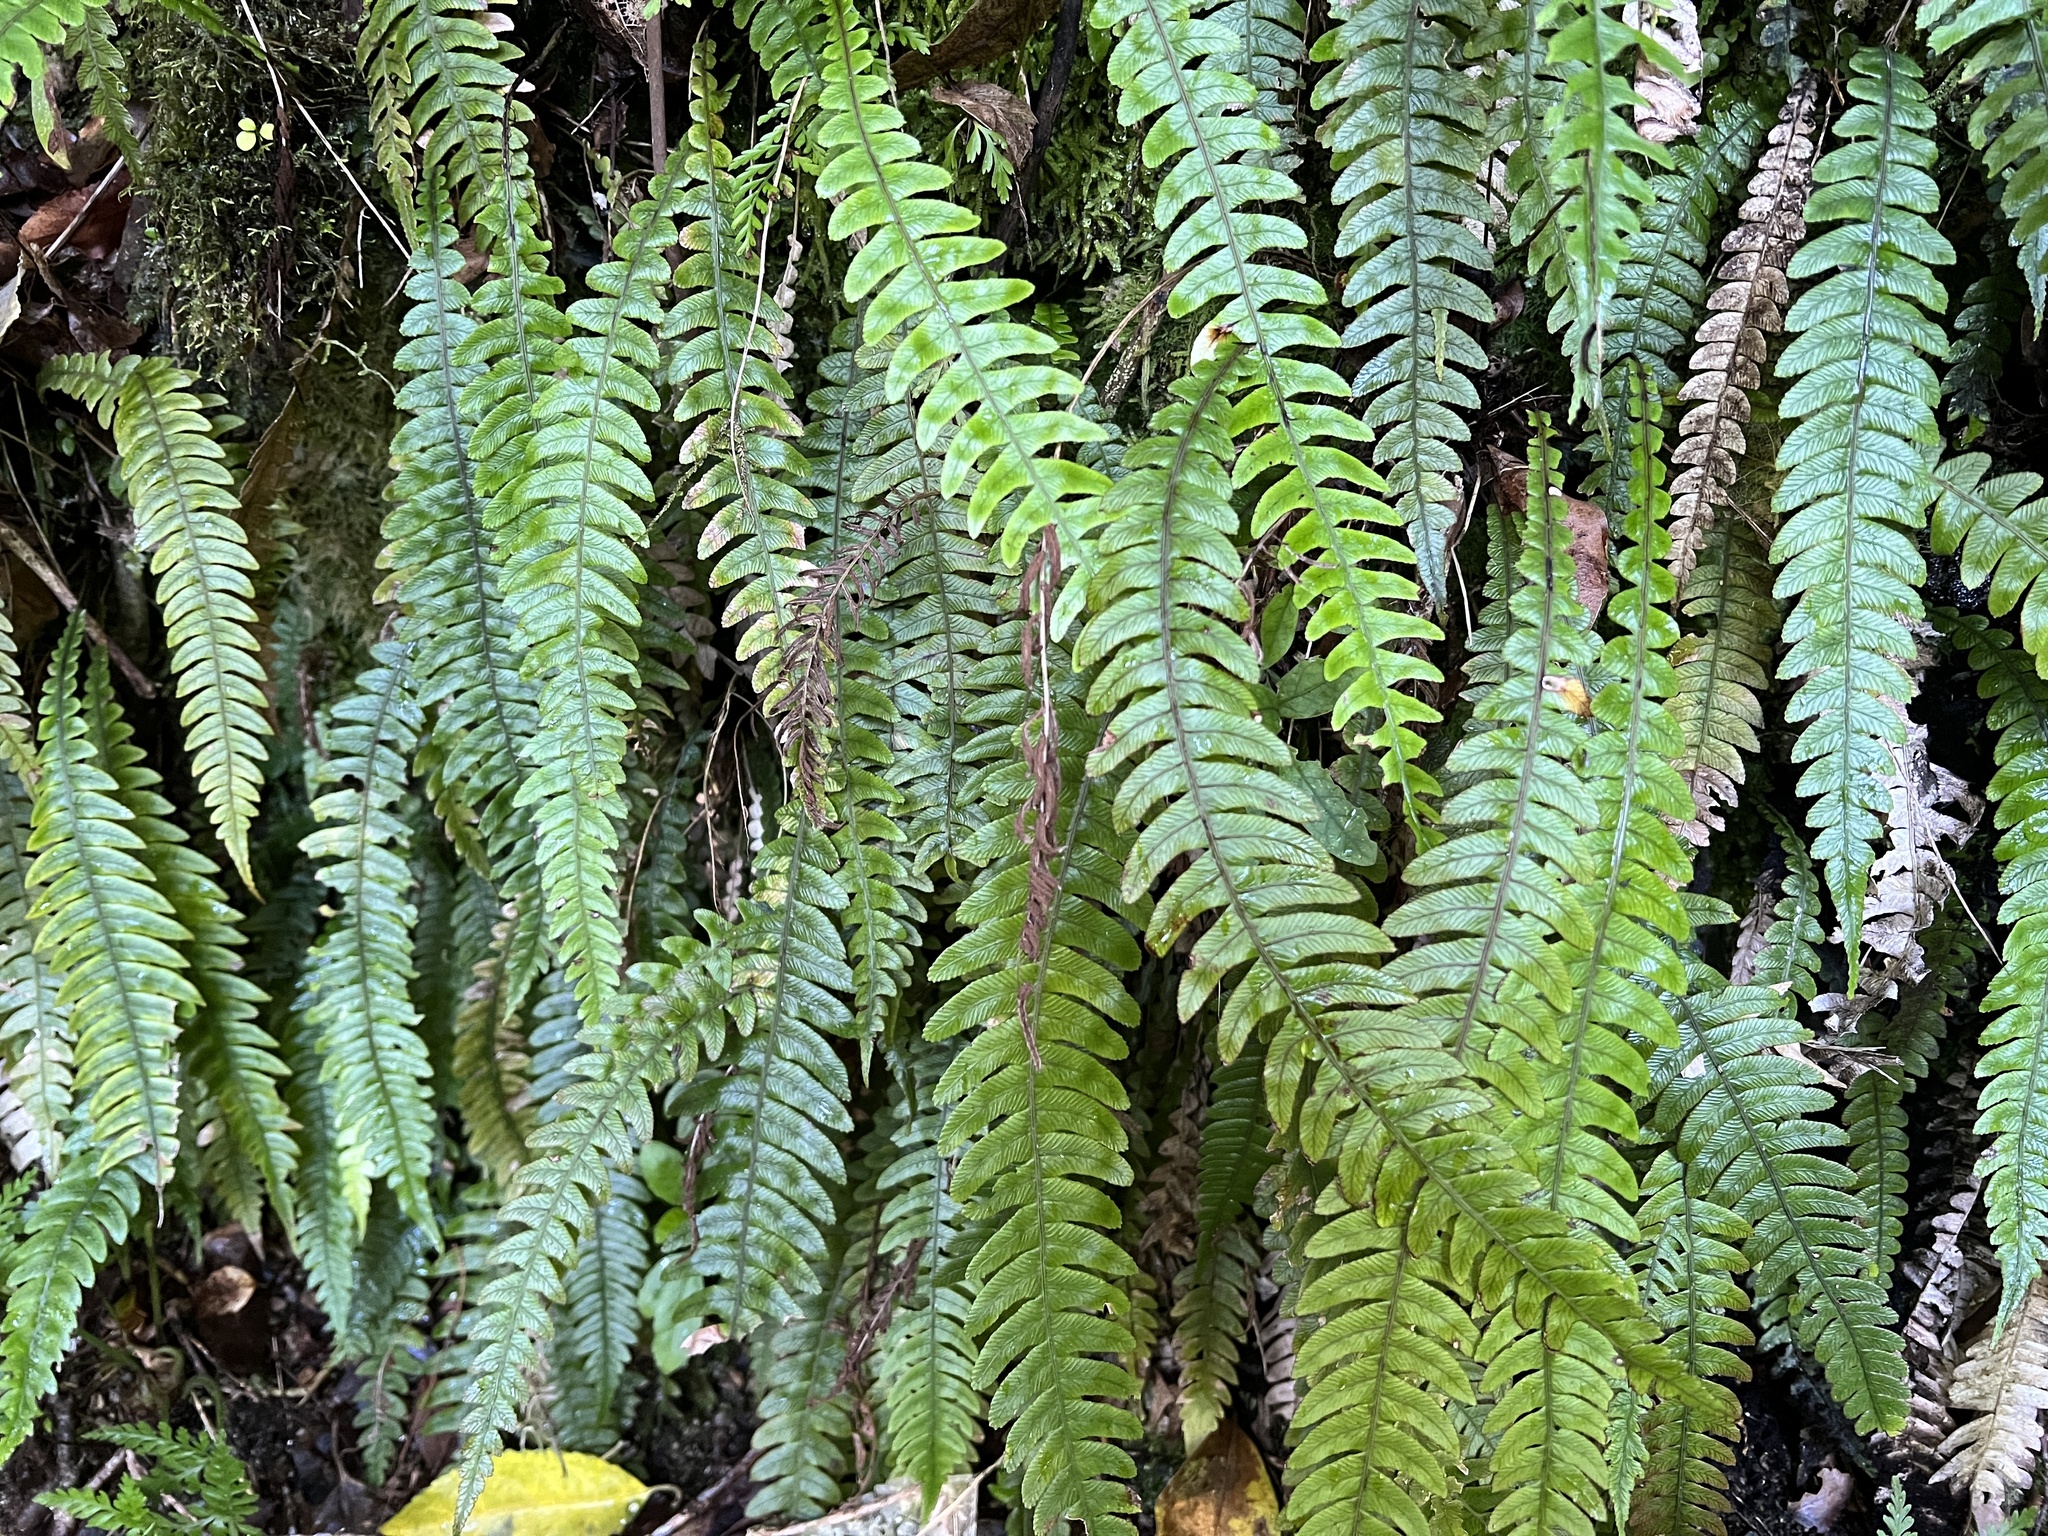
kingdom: Plantae
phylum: Tracheophyta
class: Polypodiopsida
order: Polypodiales
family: Blechnaceae
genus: Austroblechnum
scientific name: Austroblechnum lanceolatum
